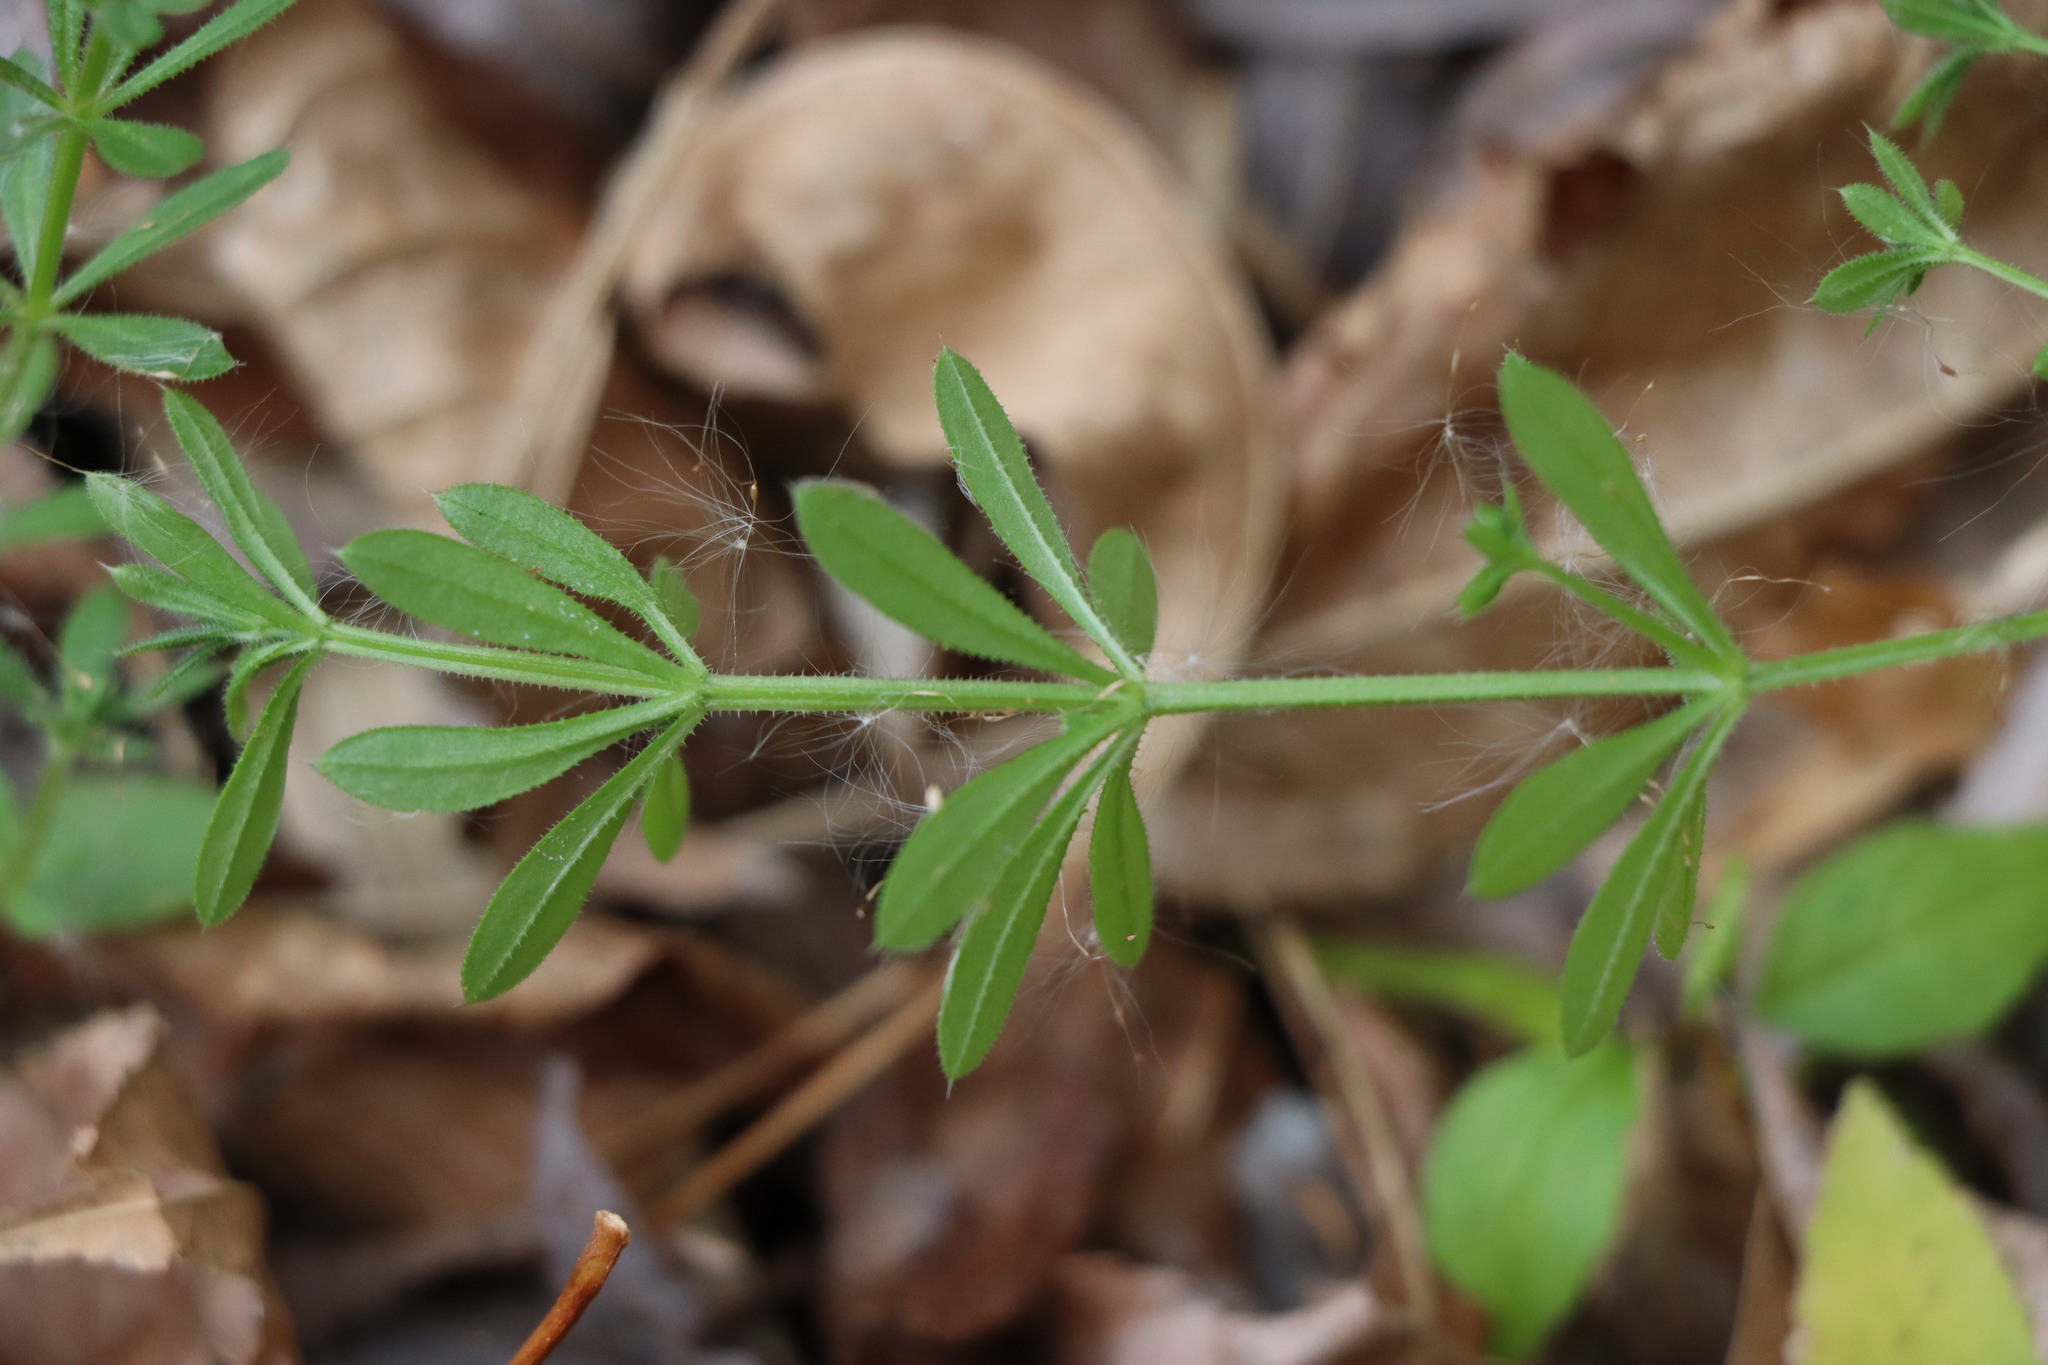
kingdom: Plantae
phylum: Tracheophyta
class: Magnoliopsida
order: Gentianales
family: Rubiaceae
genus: Galium
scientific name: Galium aparine
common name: Cleavers
